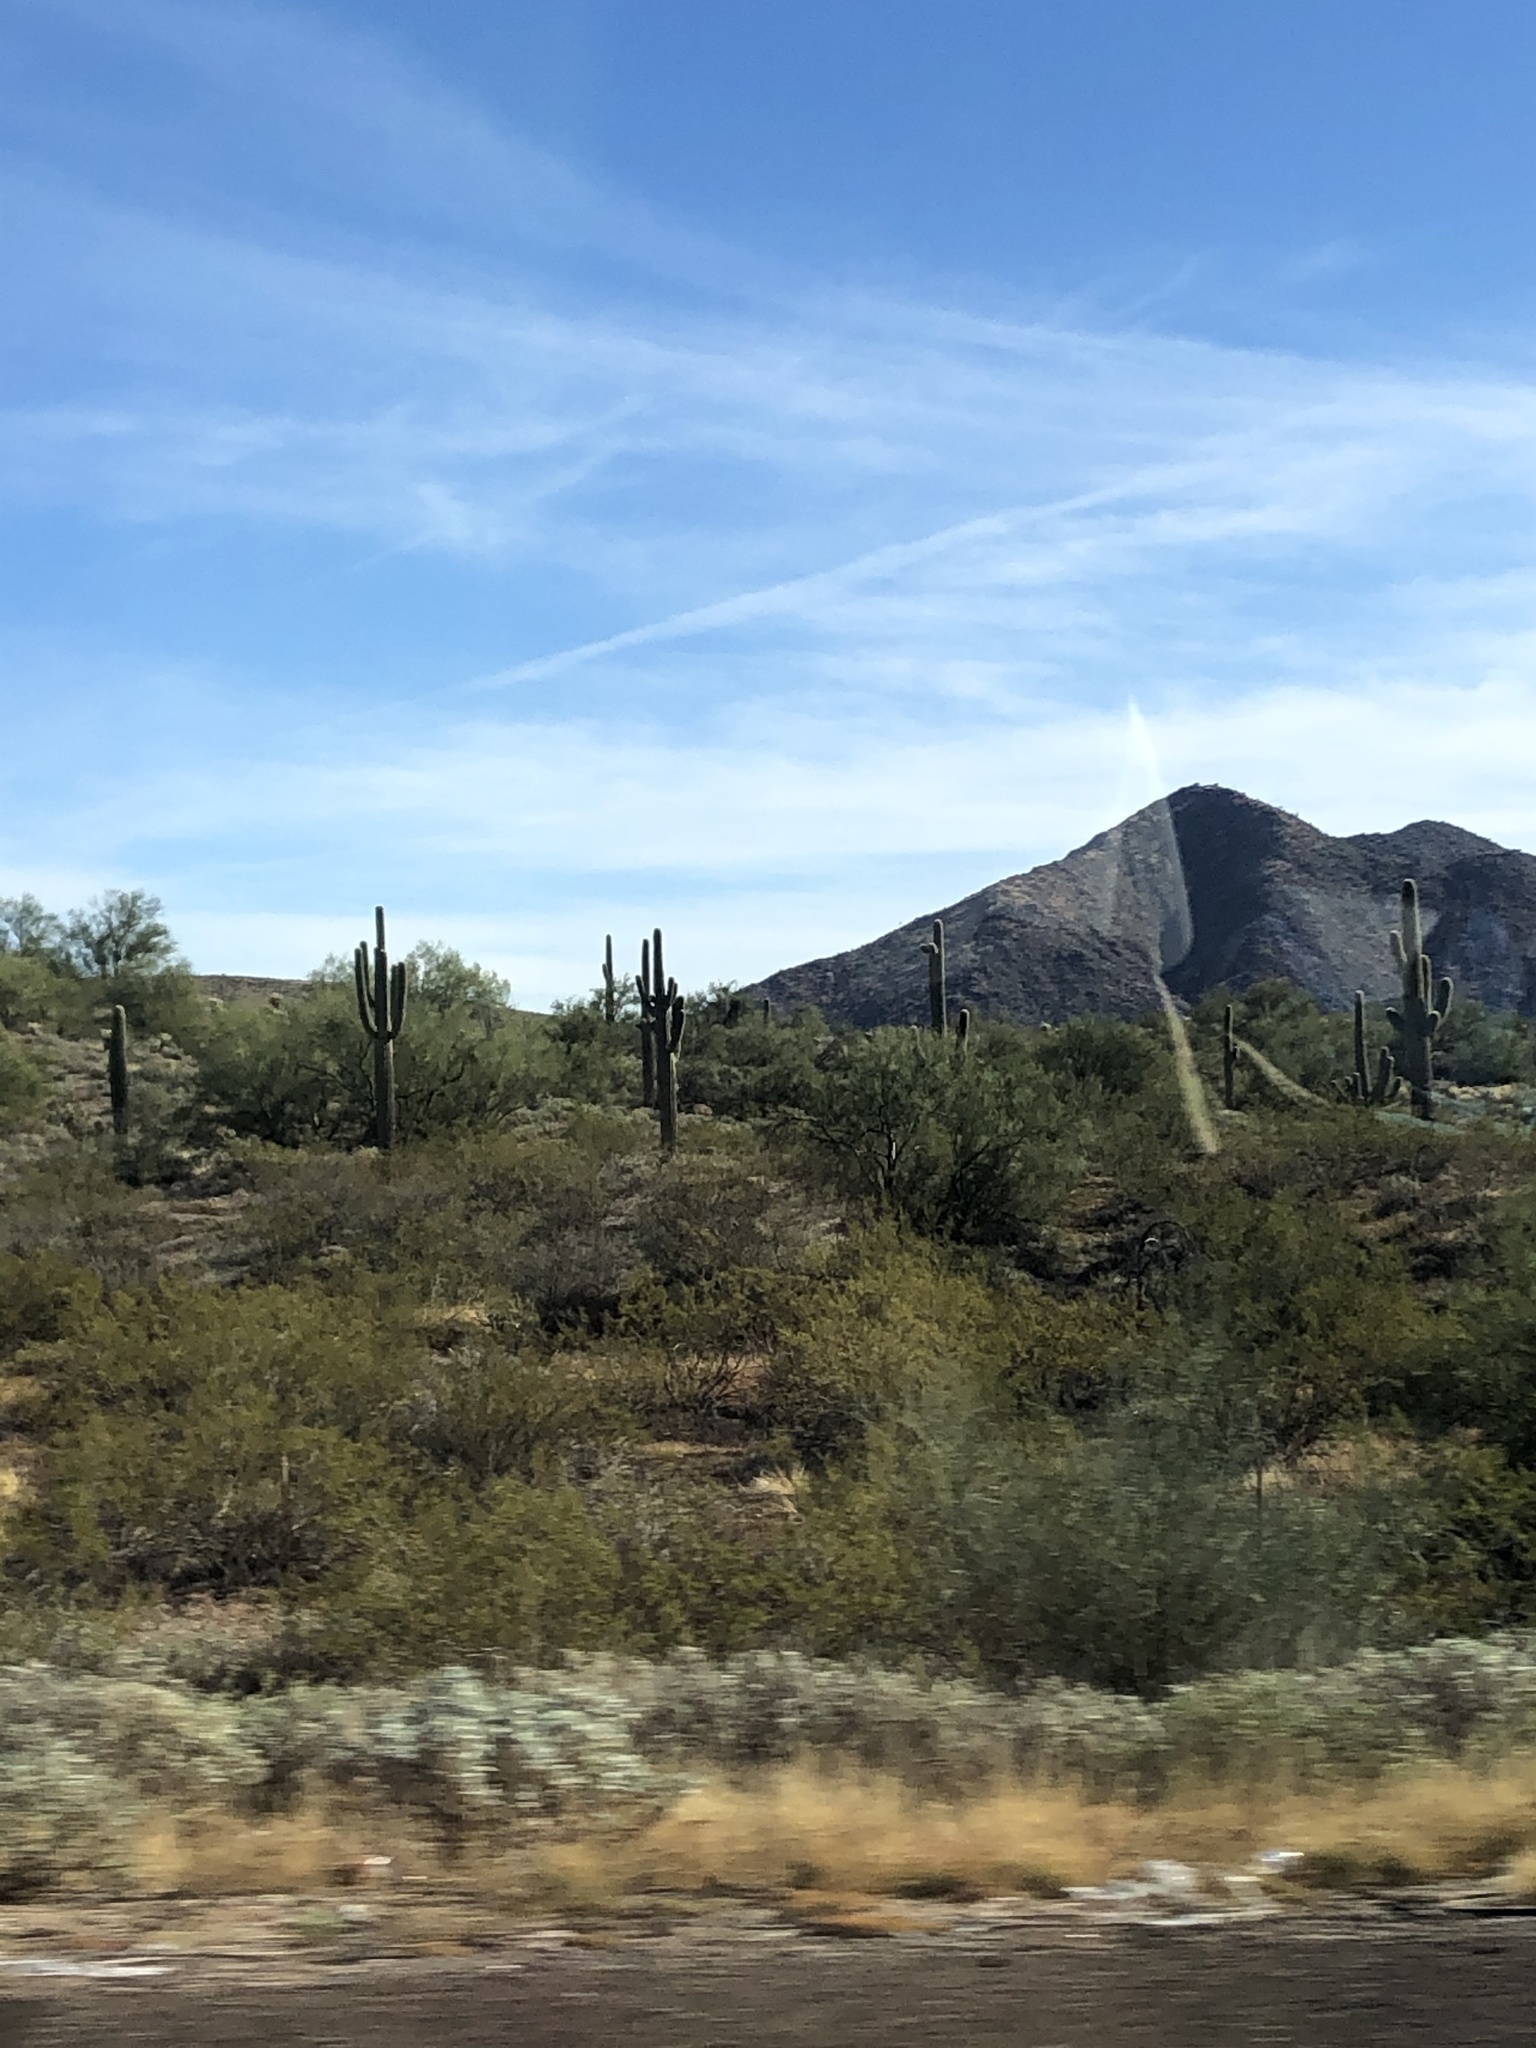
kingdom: Plantae
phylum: Tracheophyta
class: Magnoliopsida
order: Caryophyllales
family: Cactaceae
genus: Carnegiea
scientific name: Carnegiea gigantea
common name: Saguaro
